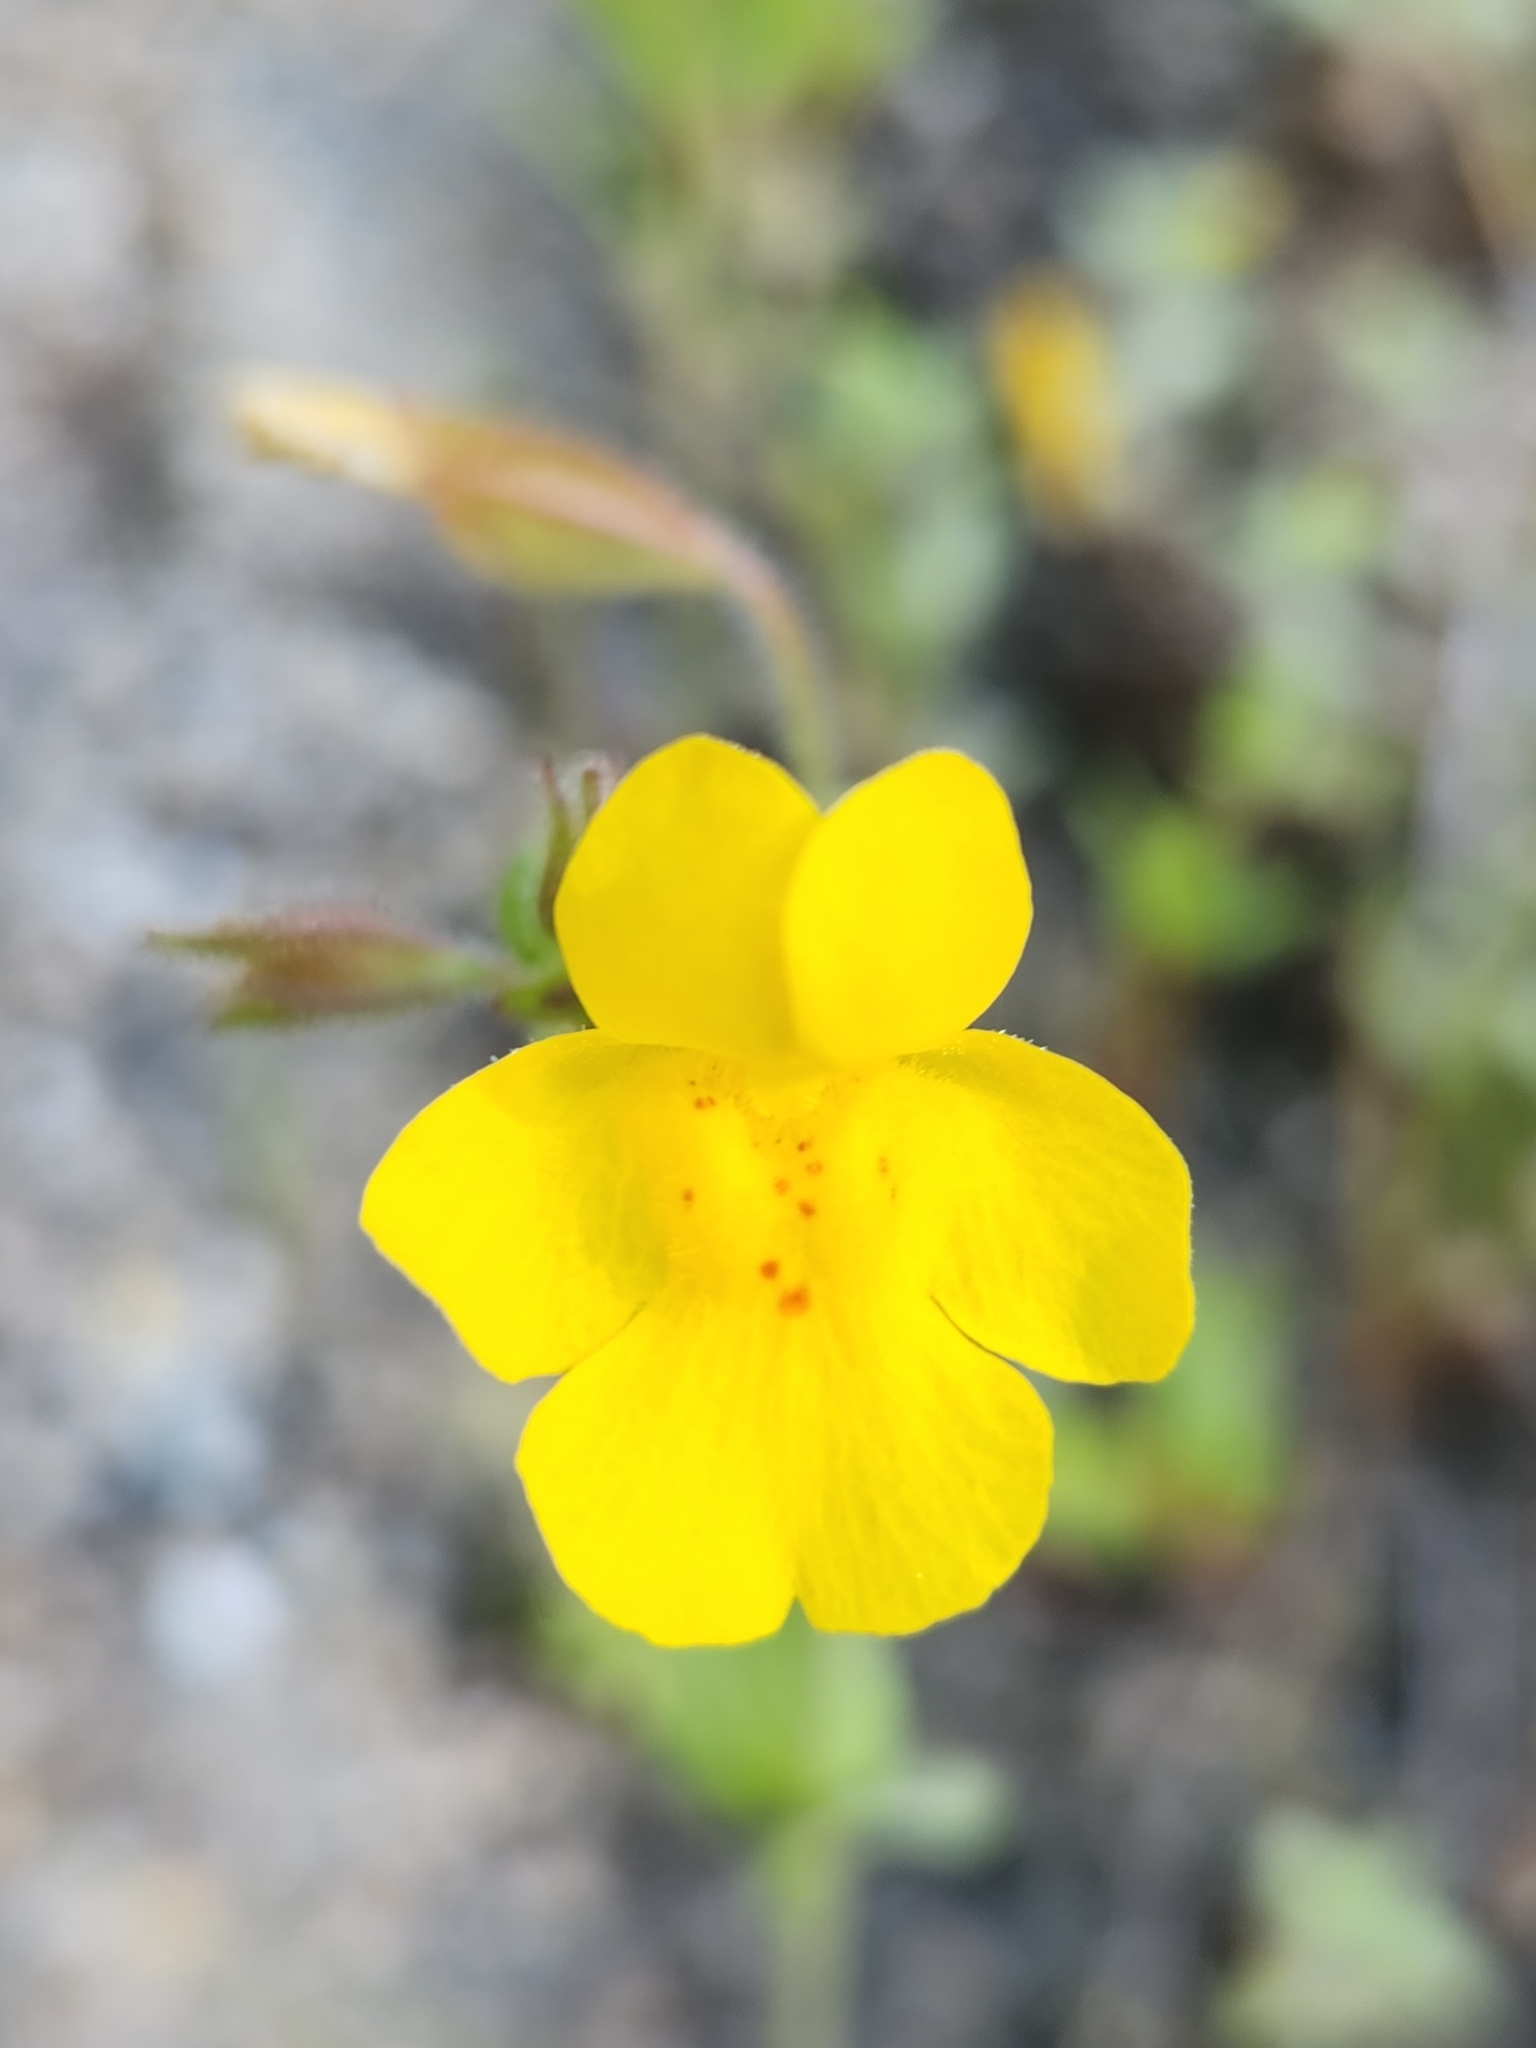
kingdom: Plantae
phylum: Tracheophyta
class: Magnoliopsida
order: Lamiales
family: Phrymaceae
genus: Erythranthe
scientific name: Erythranthe guttata
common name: Monkeyflower
